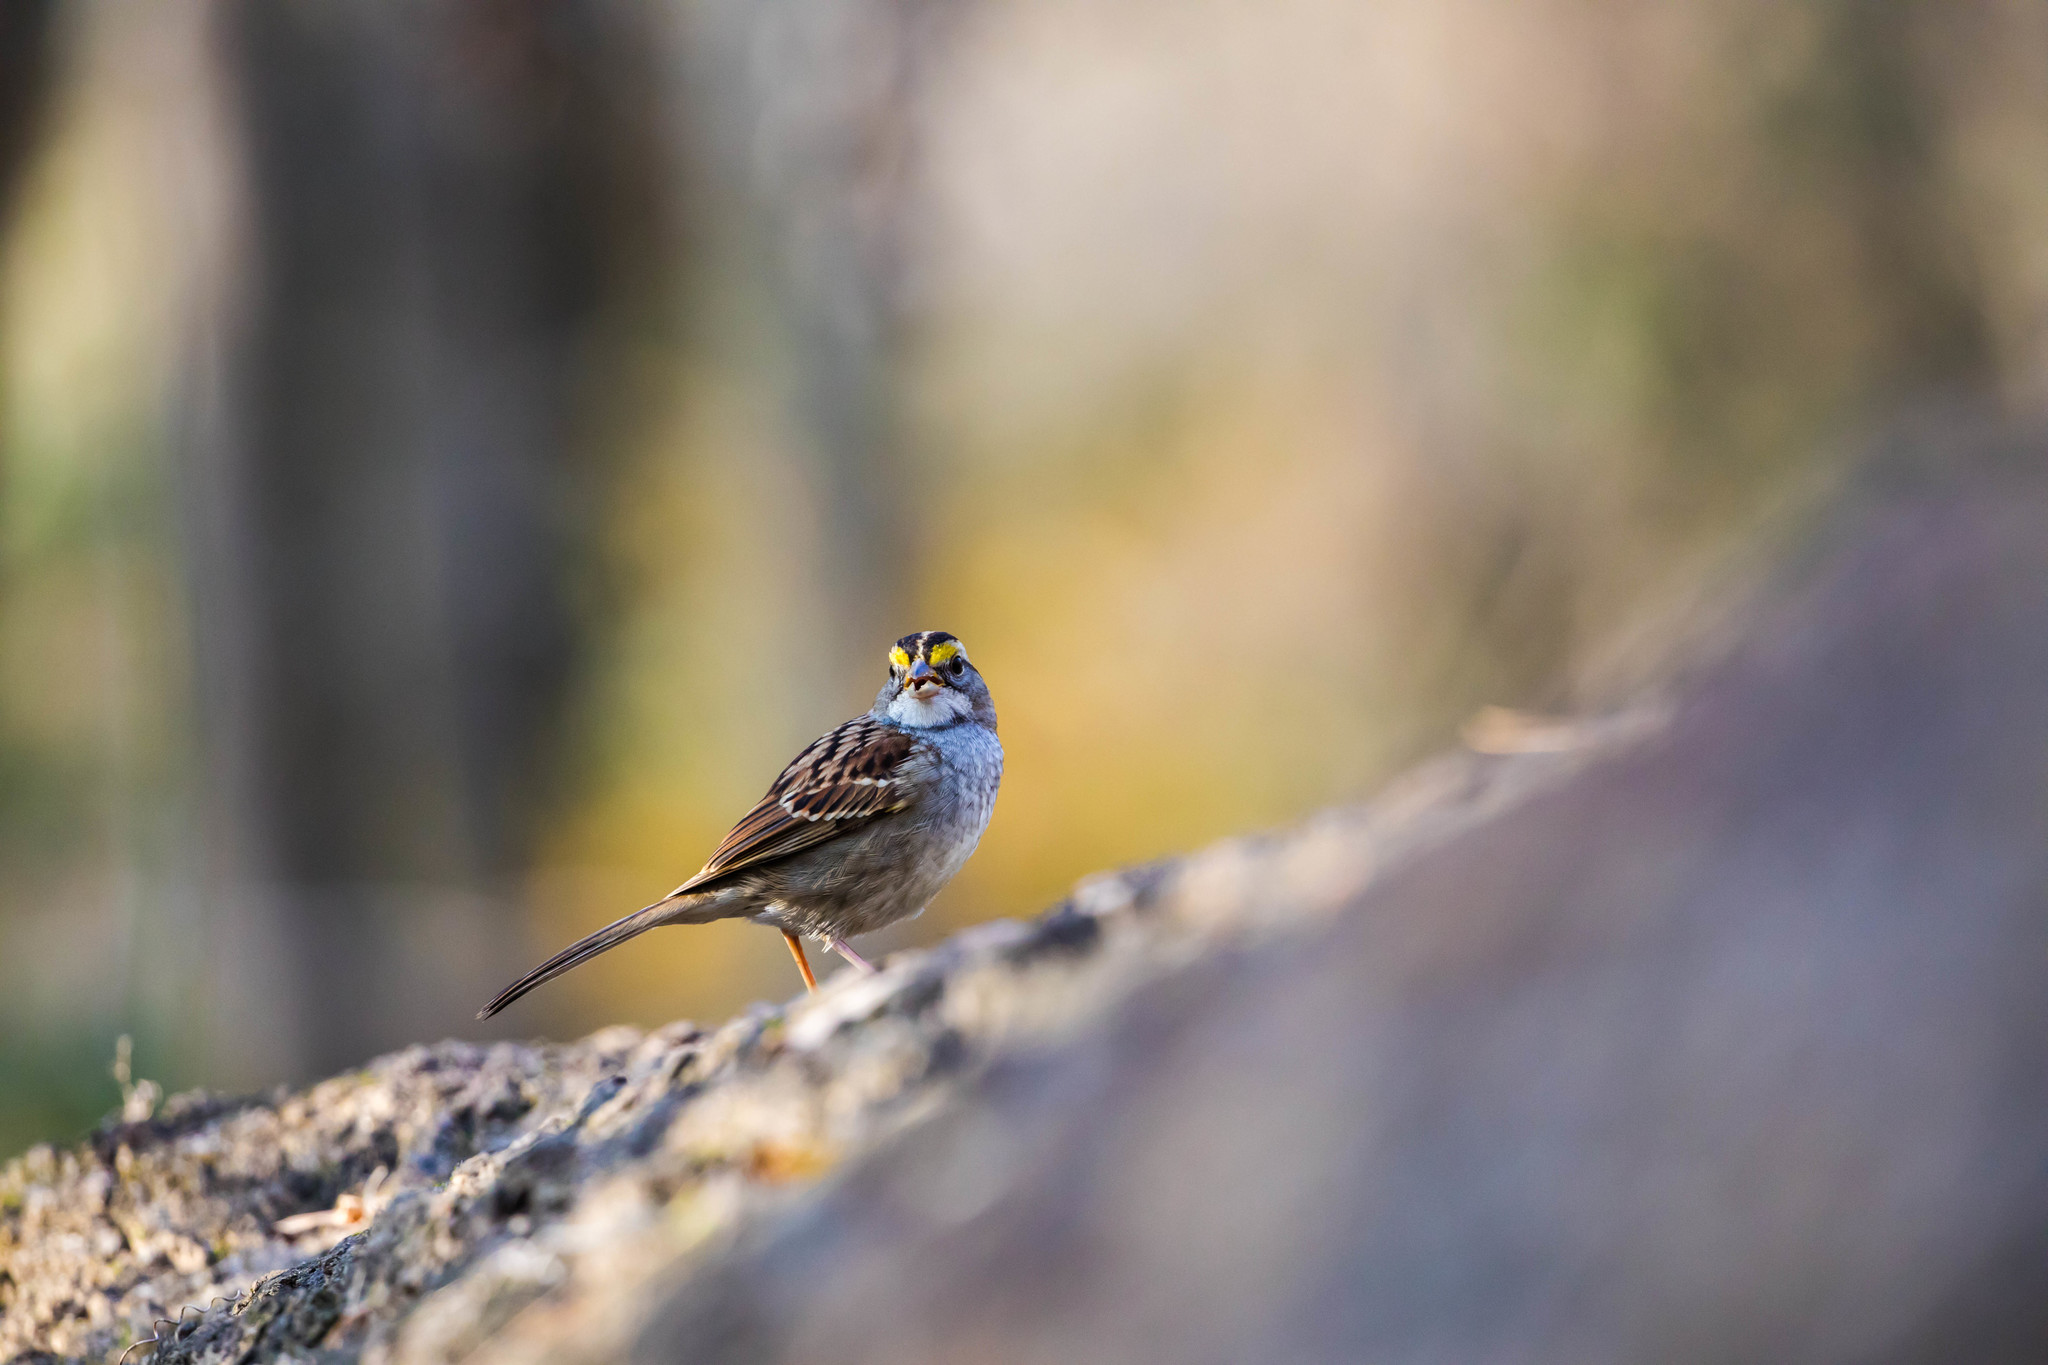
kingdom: Animalia
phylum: Chordata
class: Aves
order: Passeriformes
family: Passerellidae
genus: Zonotrichia
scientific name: Zonotrichia albicollis
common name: White-throated sparrow
